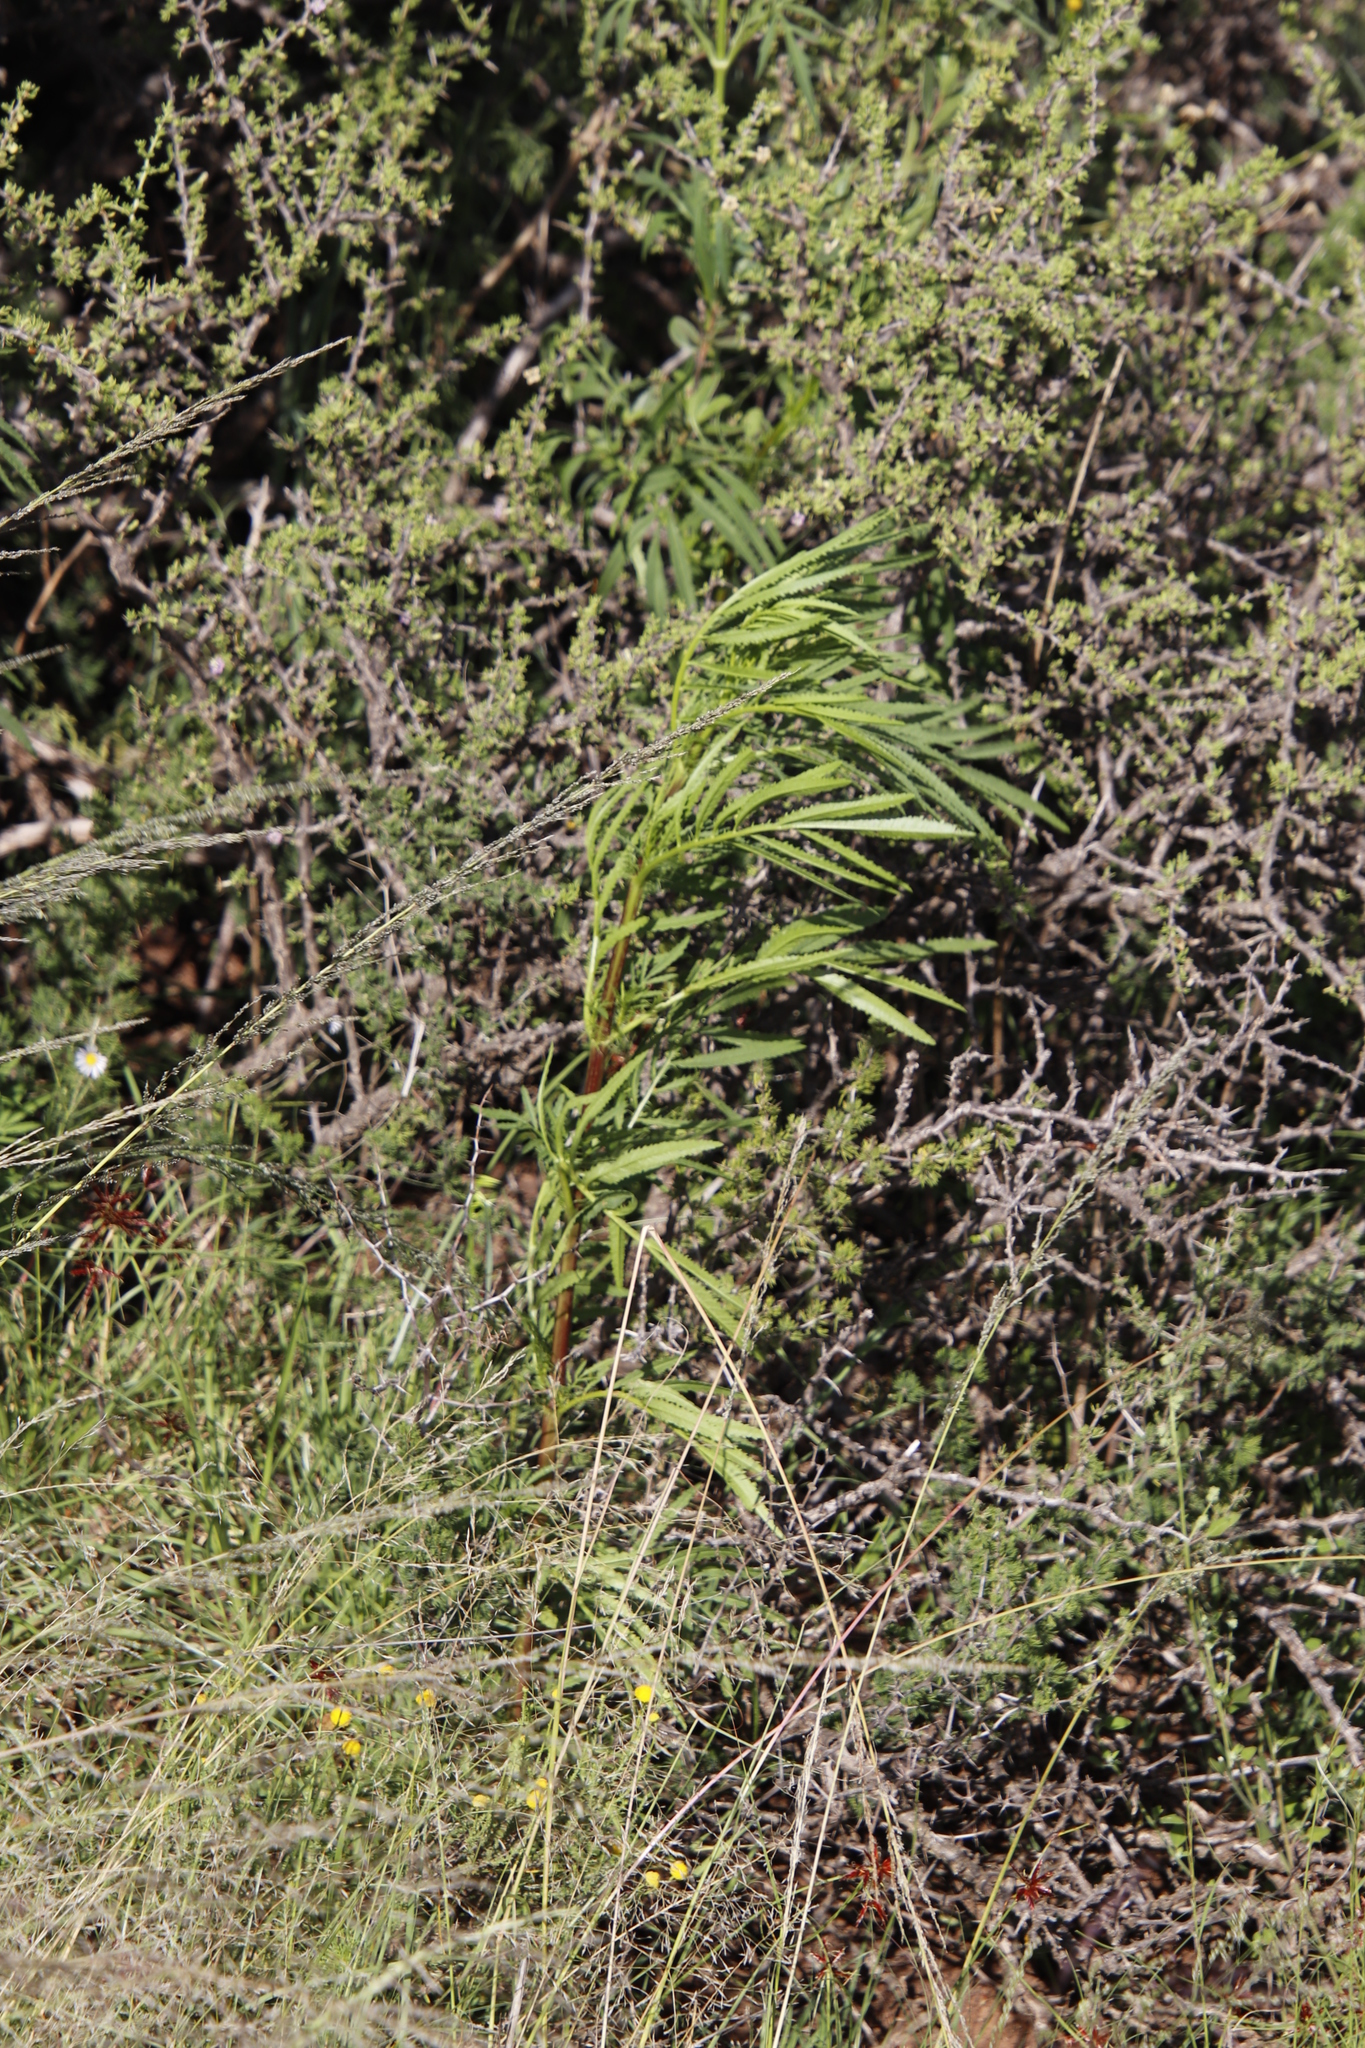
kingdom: Plantae
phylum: Tracheophyta
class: Magnoliopsida
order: Asterales
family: Asteraceae
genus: Tagetes
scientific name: Tagetes minuta
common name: Muster john henry
